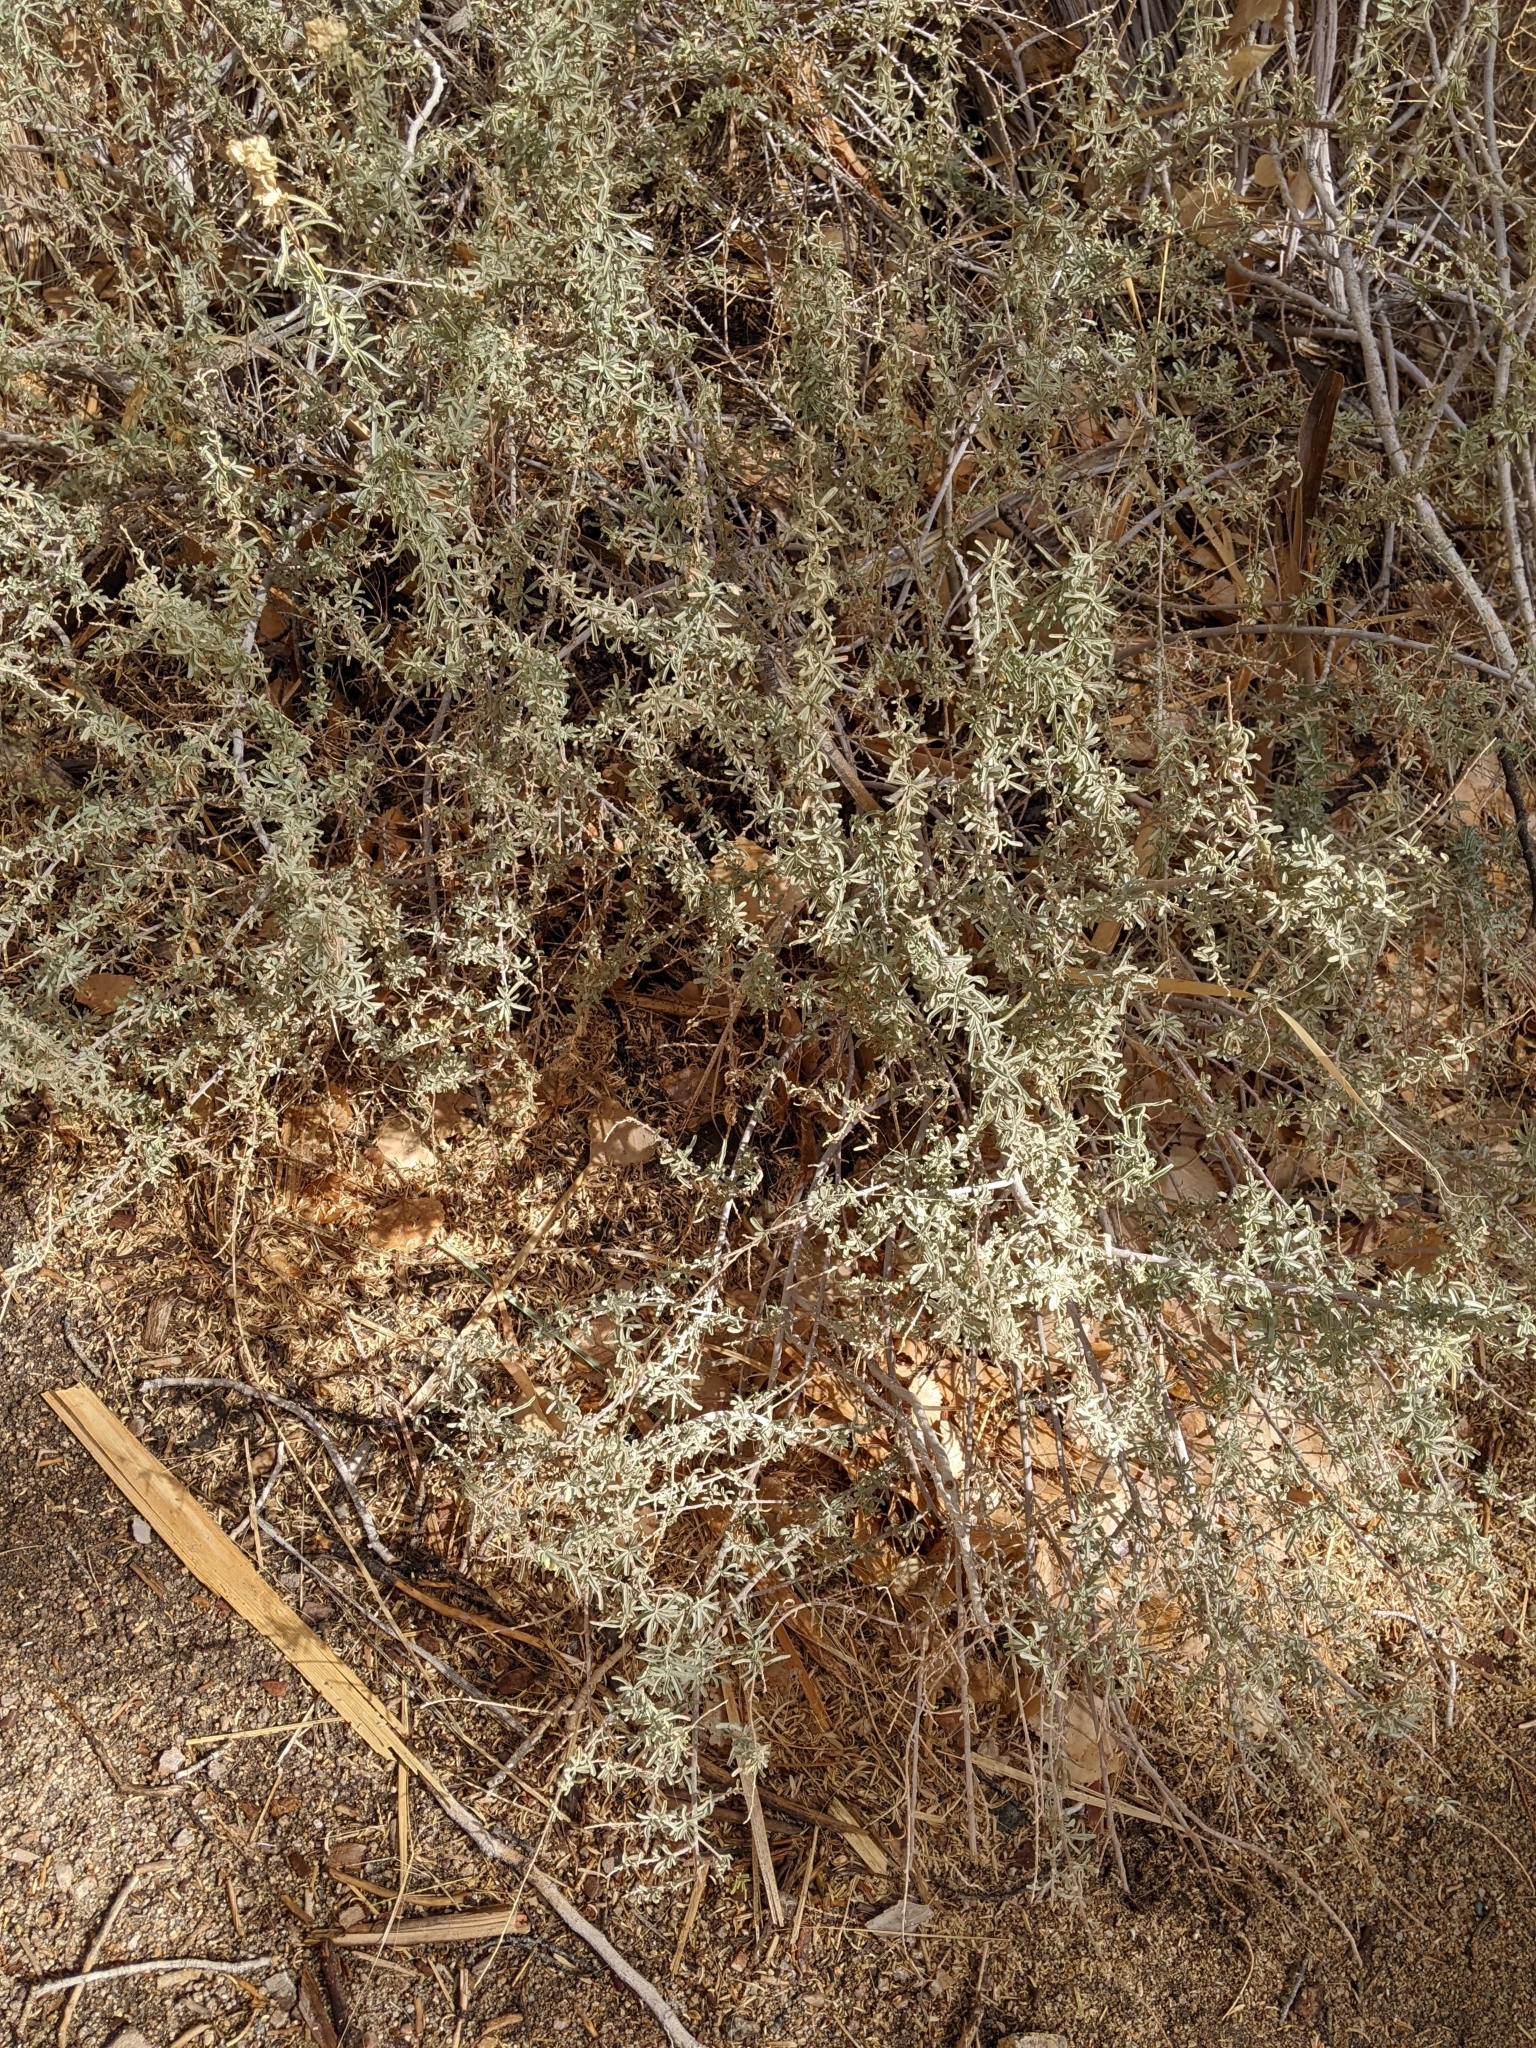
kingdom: Plantae
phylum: Tracheophyta
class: Magnoliopsida
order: Caryophyllales
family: Amaranthaceae
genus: Atriplex
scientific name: Atriplex canescens
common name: Four-wing saltbush
